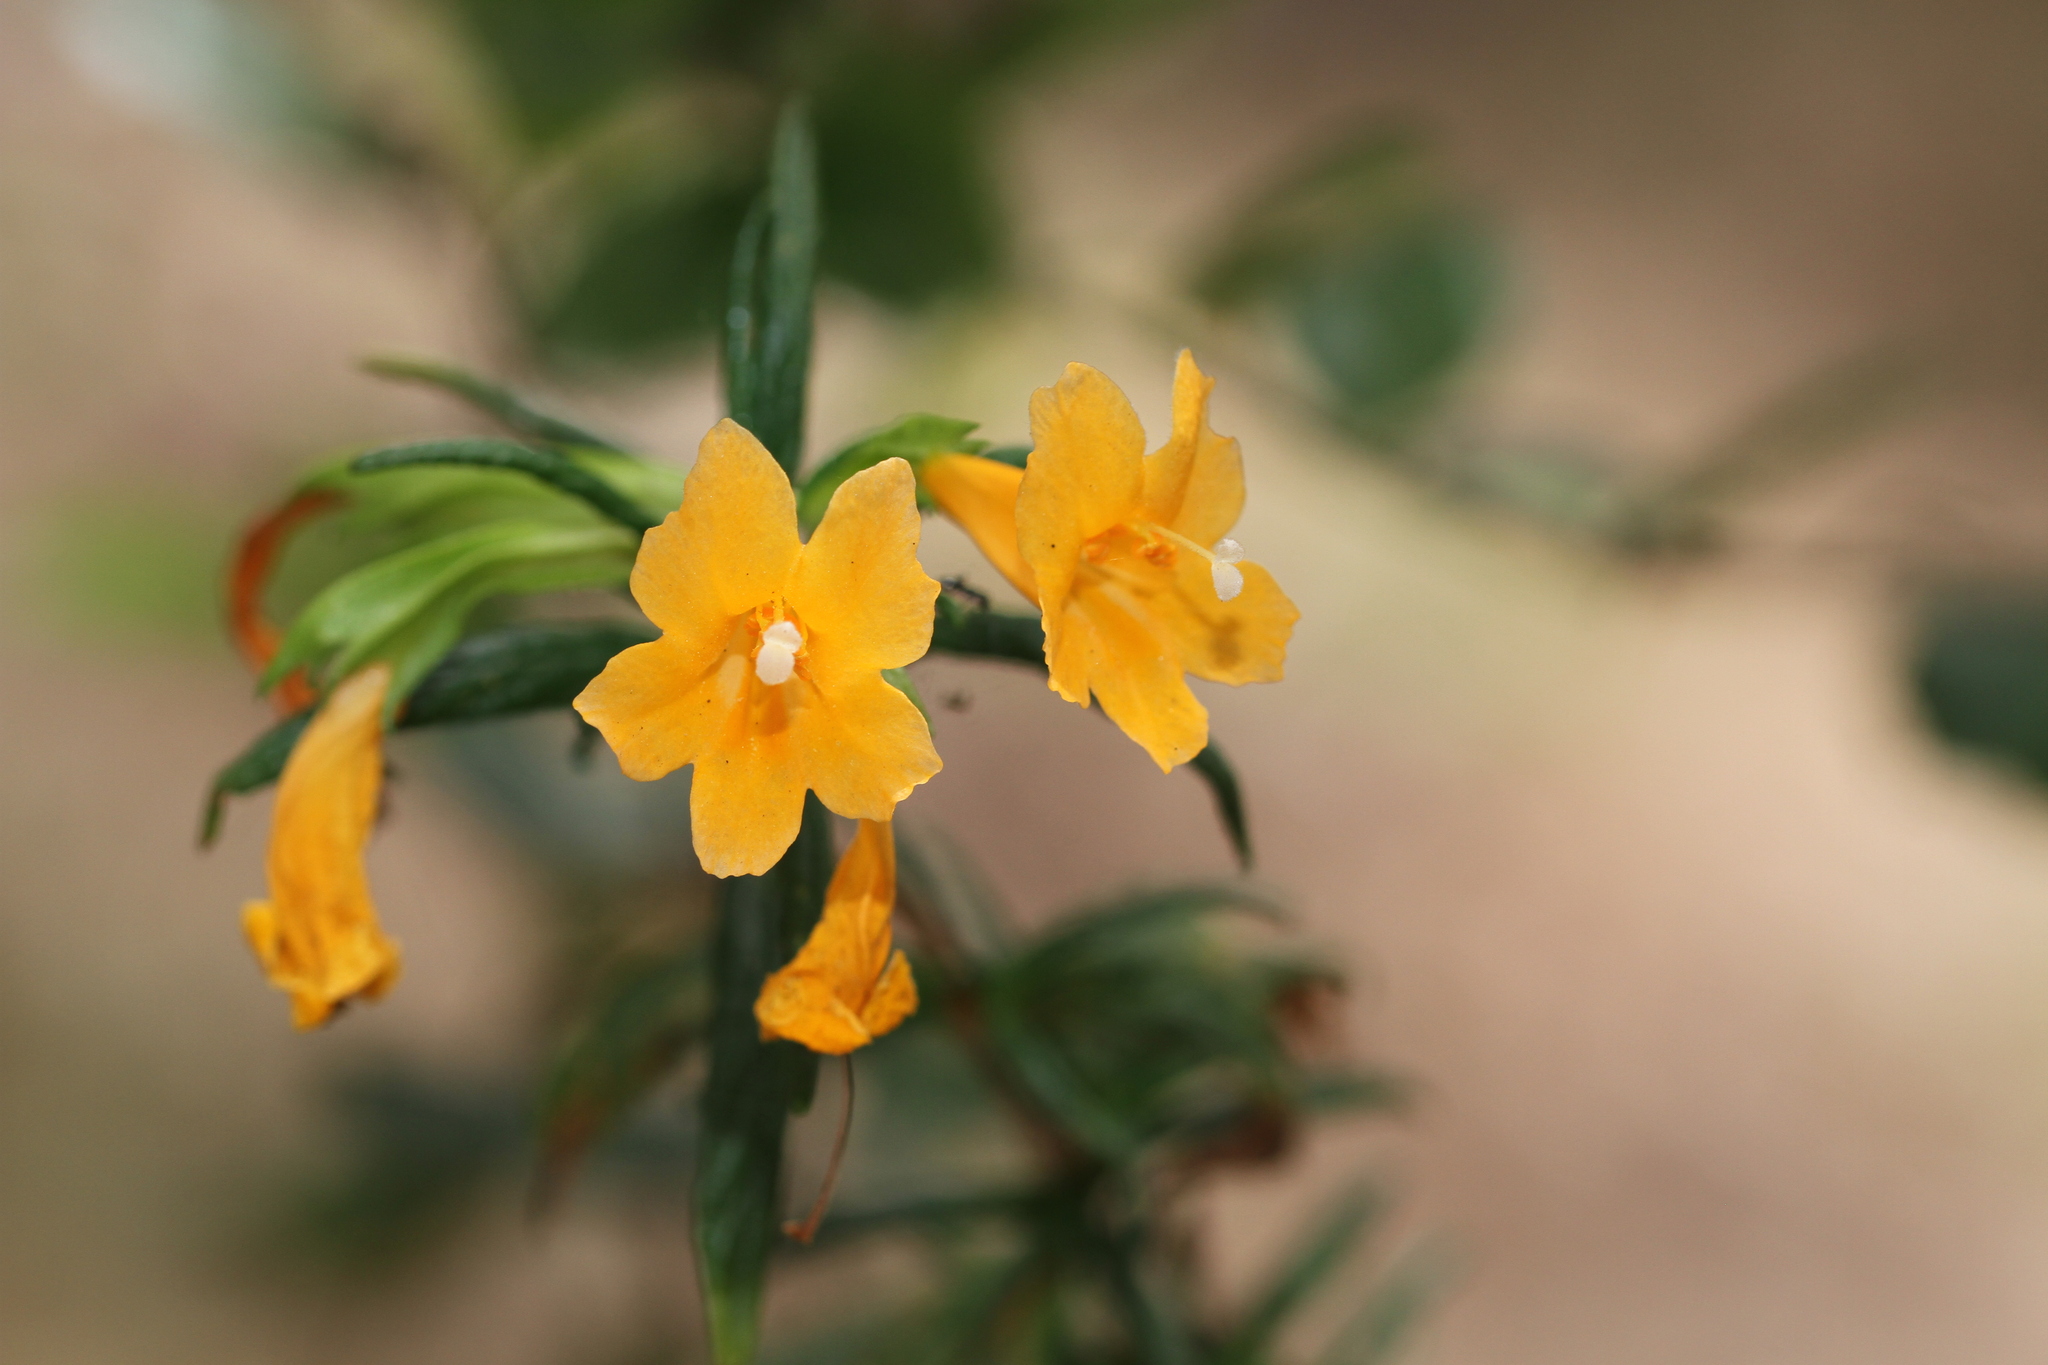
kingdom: Plantae
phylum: Tracheophyta
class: Magnoliopsida
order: Lamiales
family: Phrymaceae
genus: Diplacus
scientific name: Diplacus aurantiacus
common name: Bush monkey-flower
